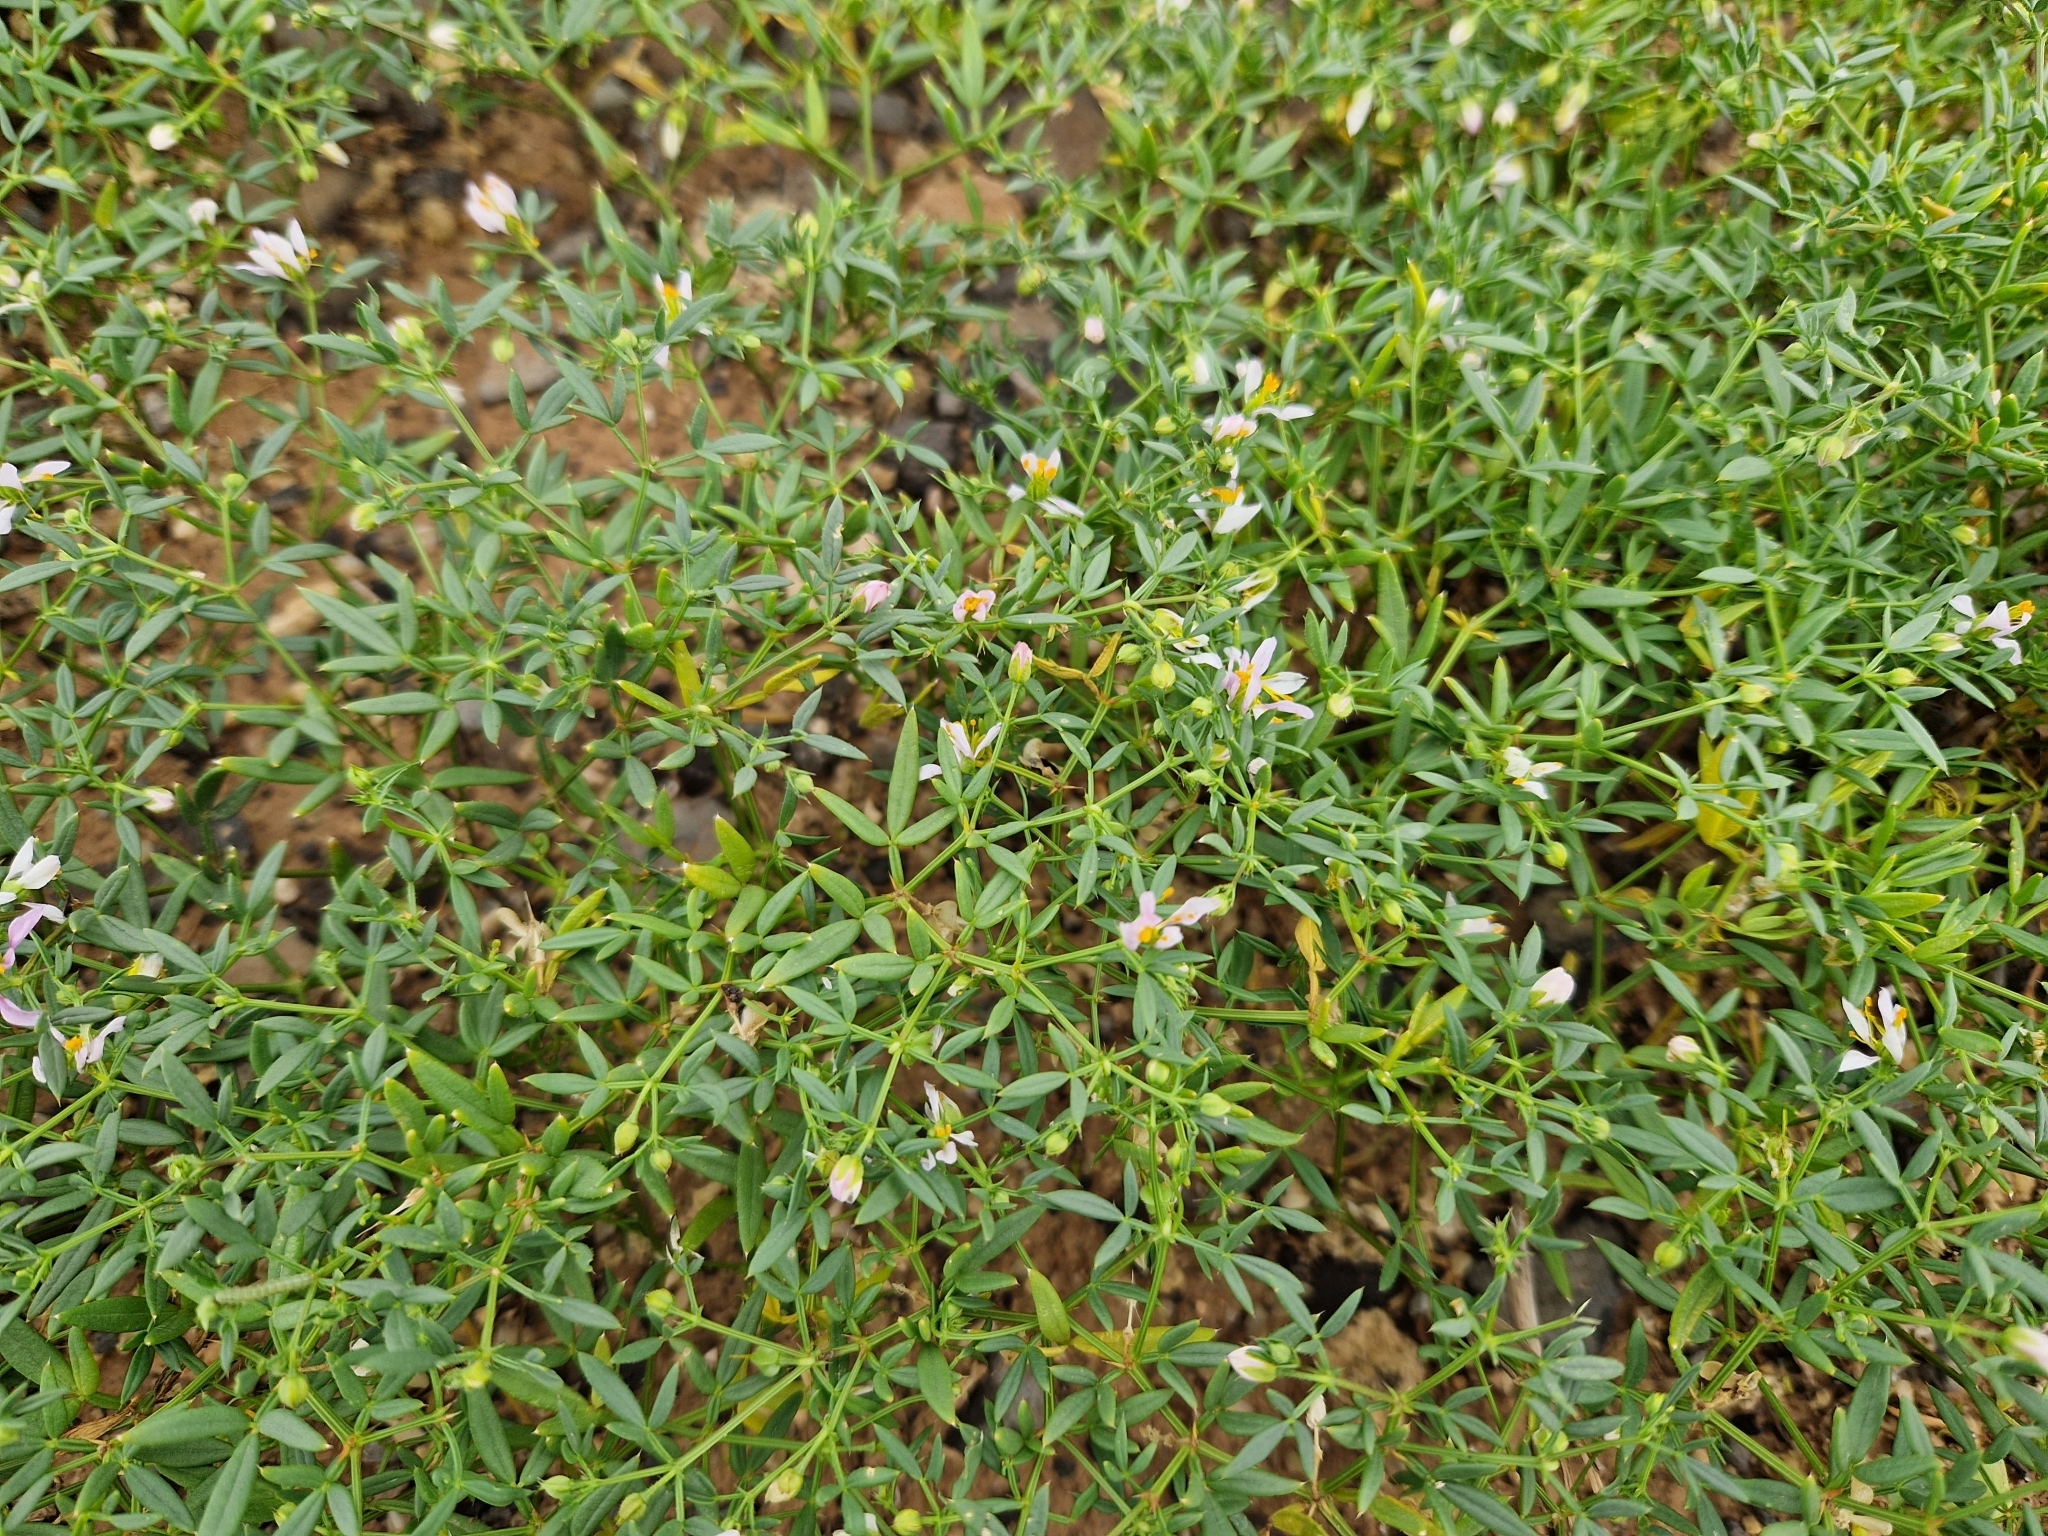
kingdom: Plantae
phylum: Tracheophyta
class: Magnoliopsida
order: Zygophyllales
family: Zygophyllaceae
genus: Fagonia
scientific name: Fagonia cretica
